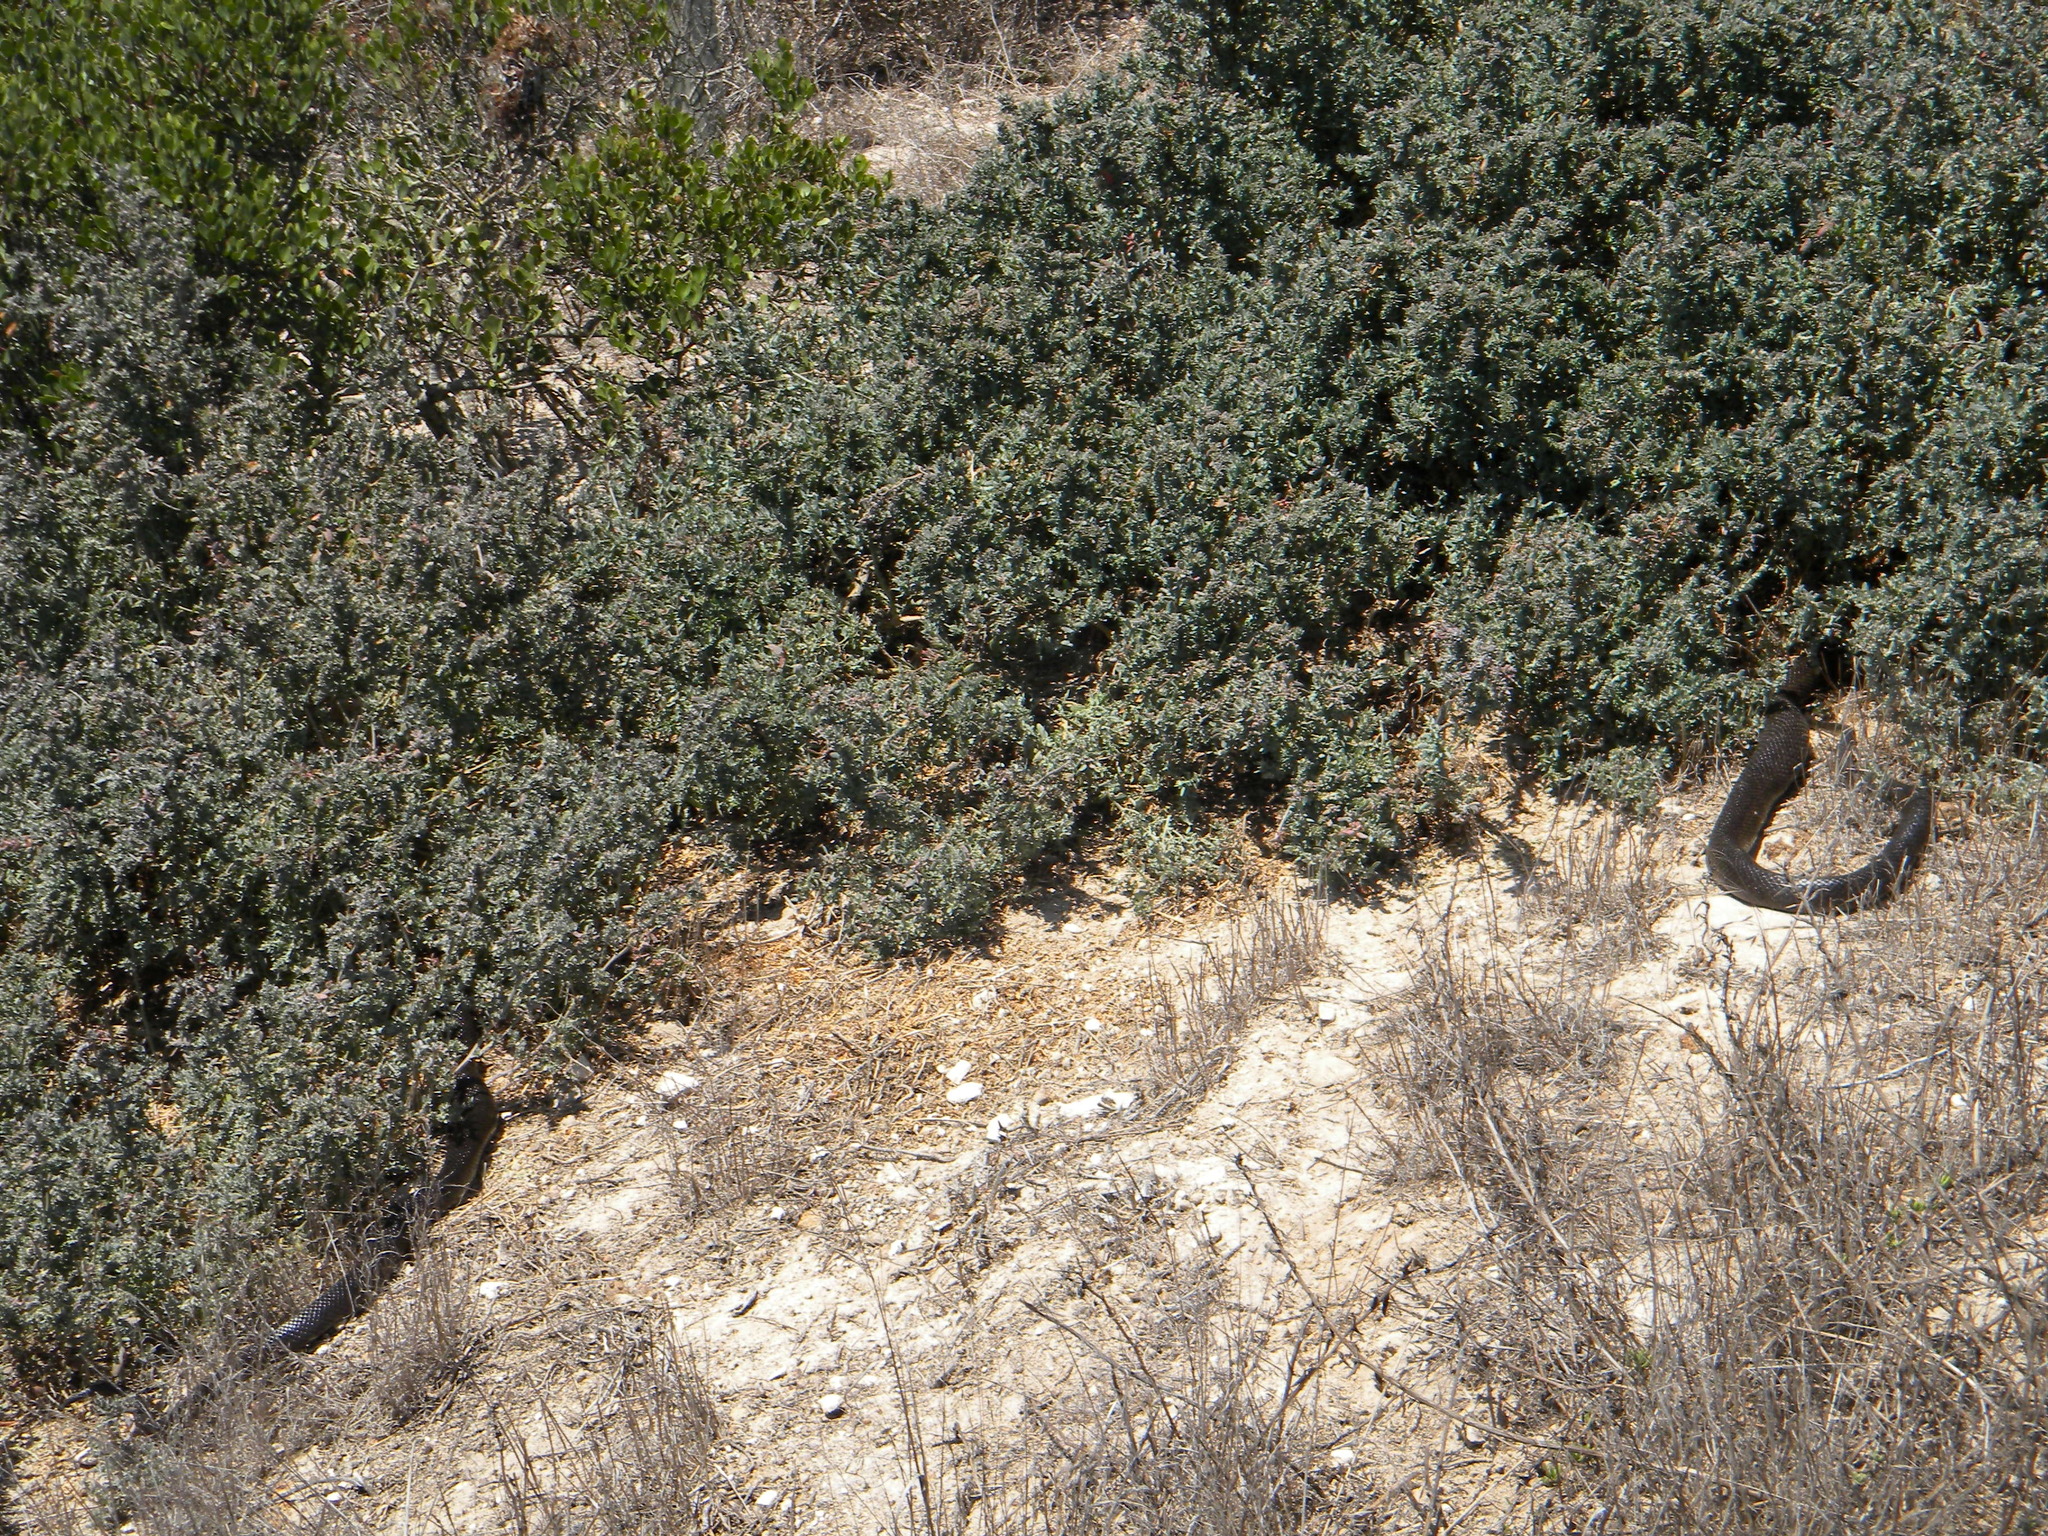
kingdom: Animalia
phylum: Chordata
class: Squamata
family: Pseudaspididae
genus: Pseudaspis
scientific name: Pseudaspis cana
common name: Mole snake
